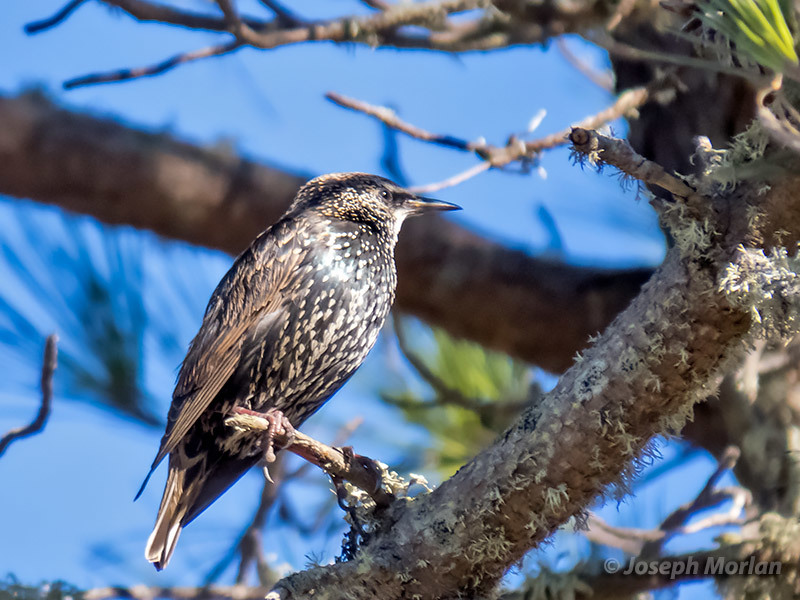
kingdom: Animalia
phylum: Chordata
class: Aves
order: Passeriformes
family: Sturnidae
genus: Sturnus
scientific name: Sturnus vulgaris
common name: Common starling
